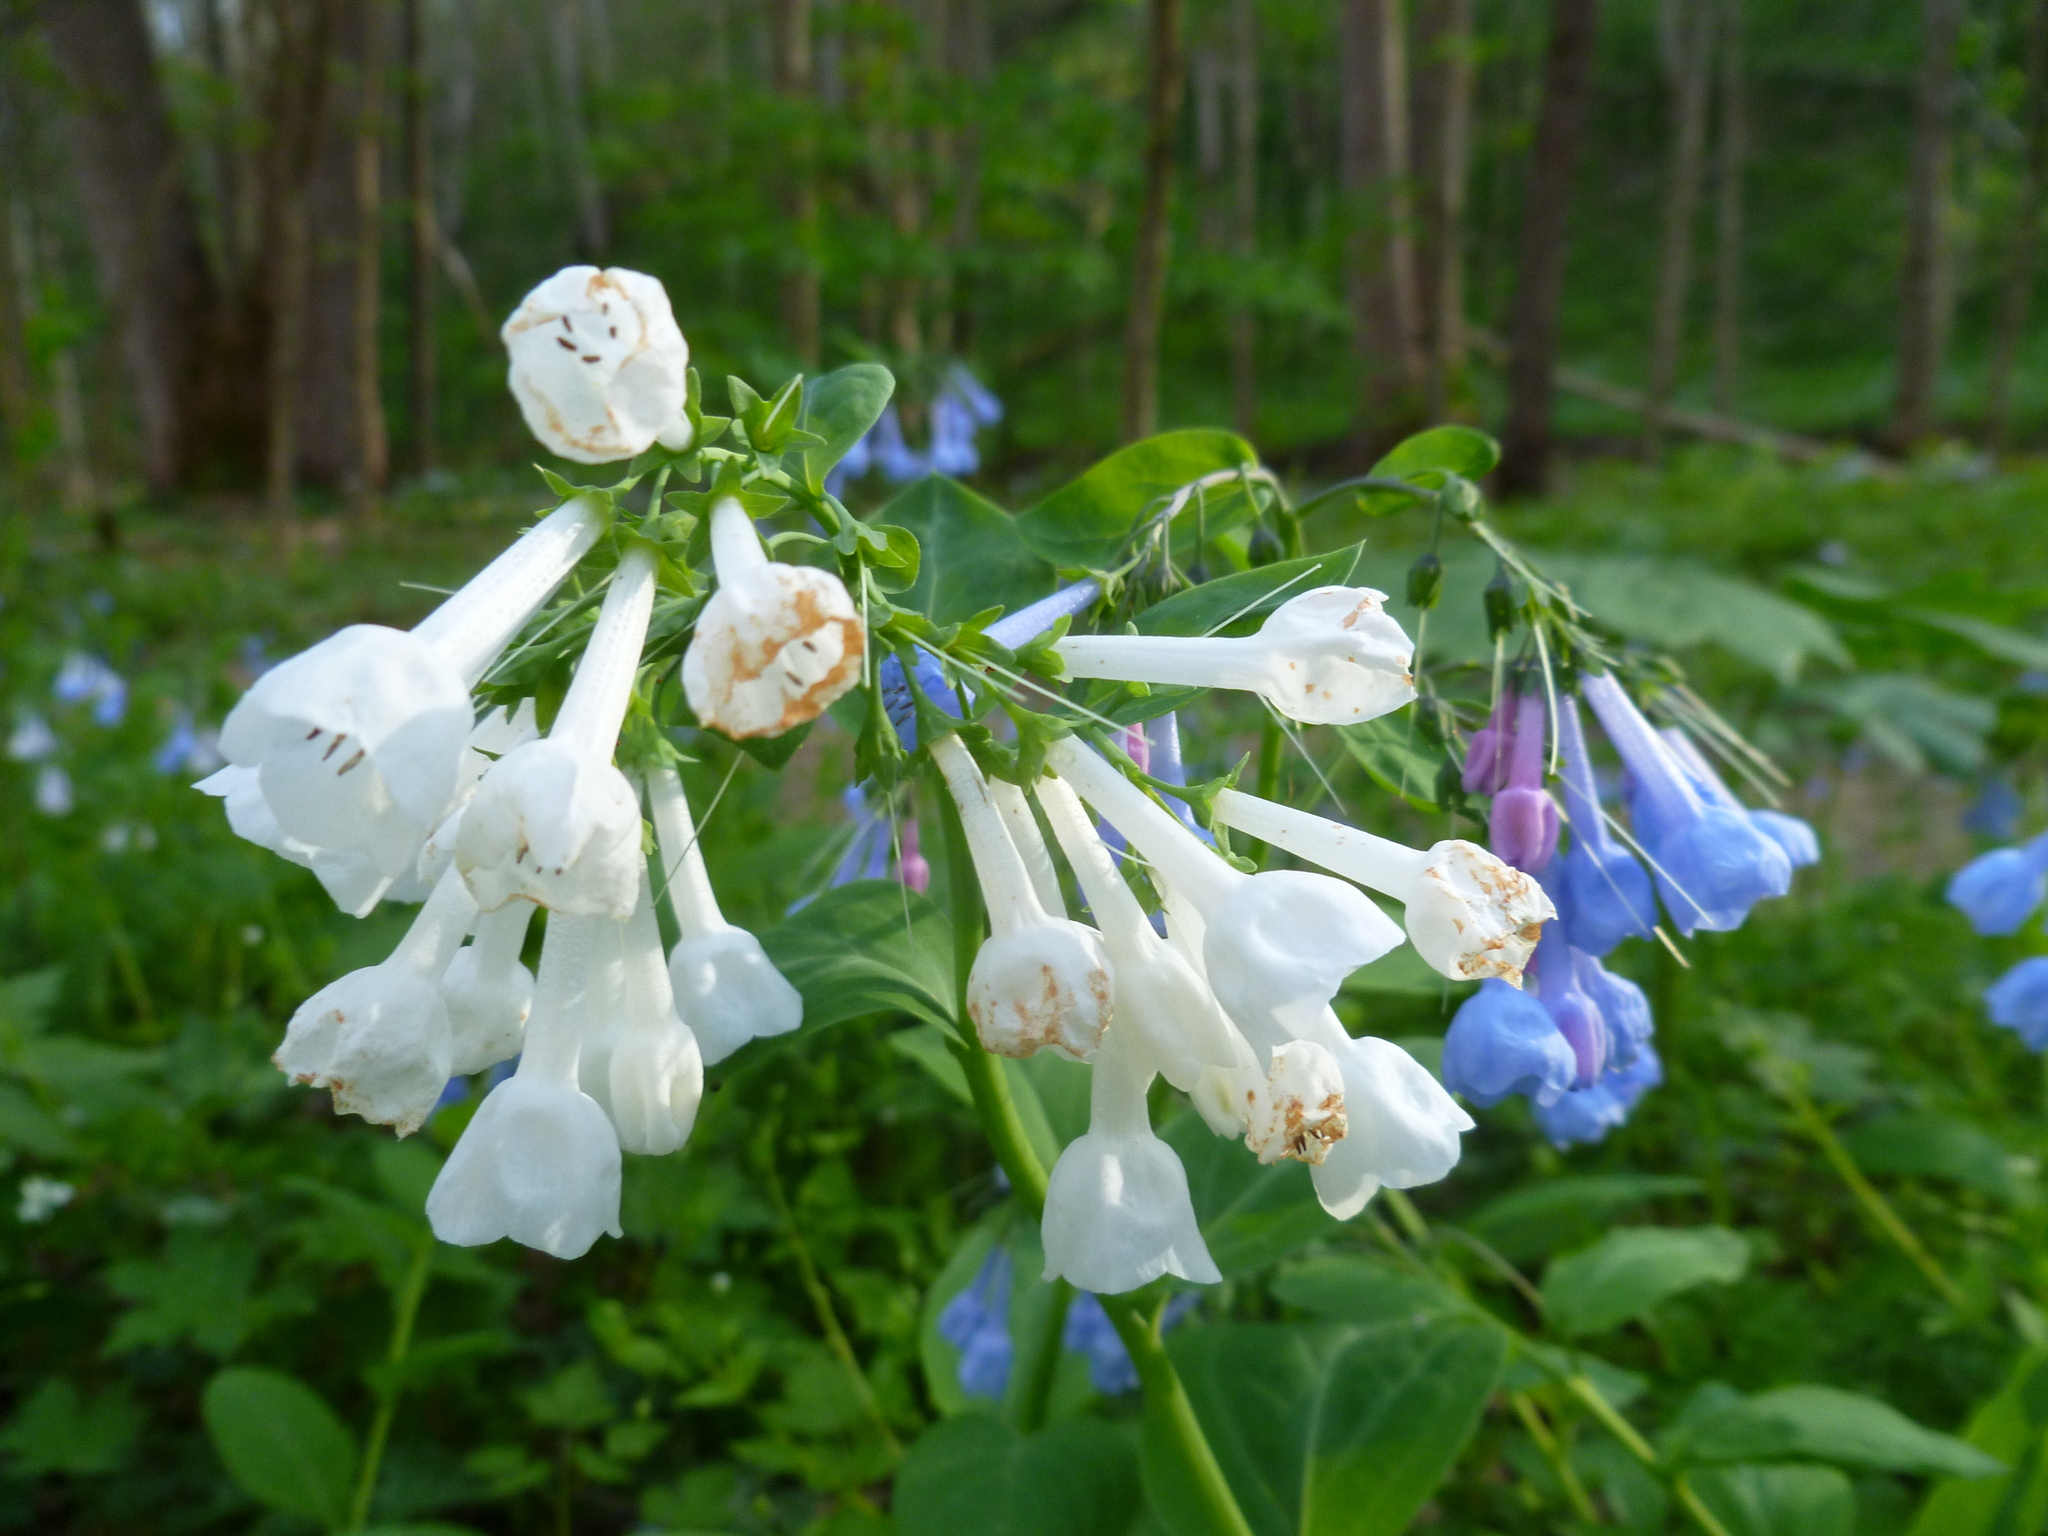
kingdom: Plantae
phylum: Tracheophyta
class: Magnoliopsida
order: Boraginales
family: Boraginaceae
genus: Mertensia
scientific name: Mertensia virginica
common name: Virginia bluebells
